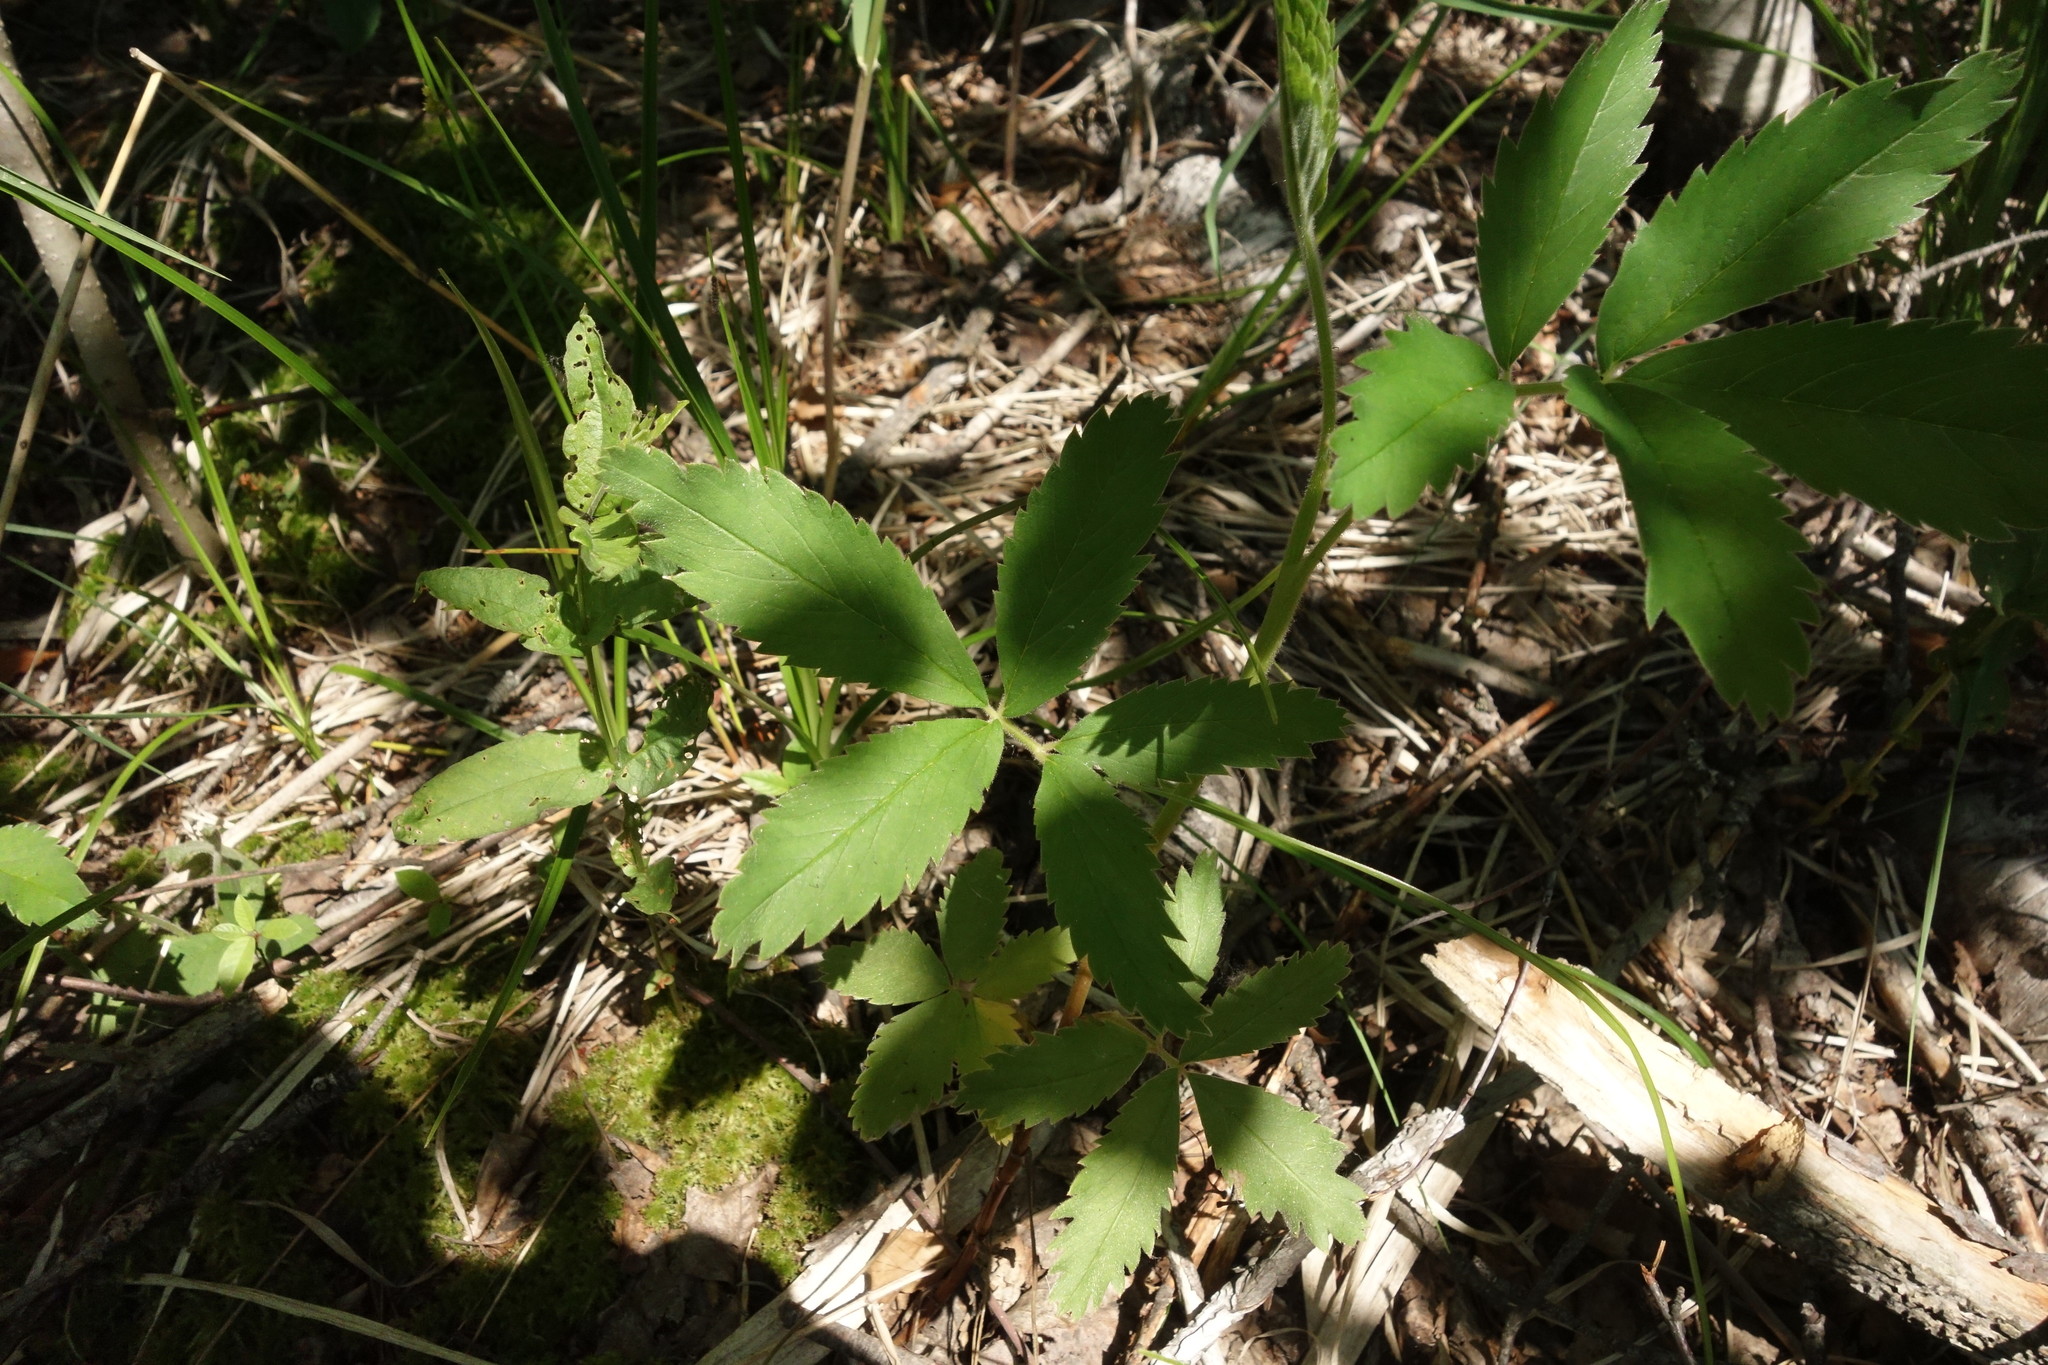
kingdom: Plantae
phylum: Tracheophyta
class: Magnoliopsida
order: Rosales
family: Rosaceae
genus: Comarum
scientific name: Comarum palustre
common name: Marsh cinquefoil
